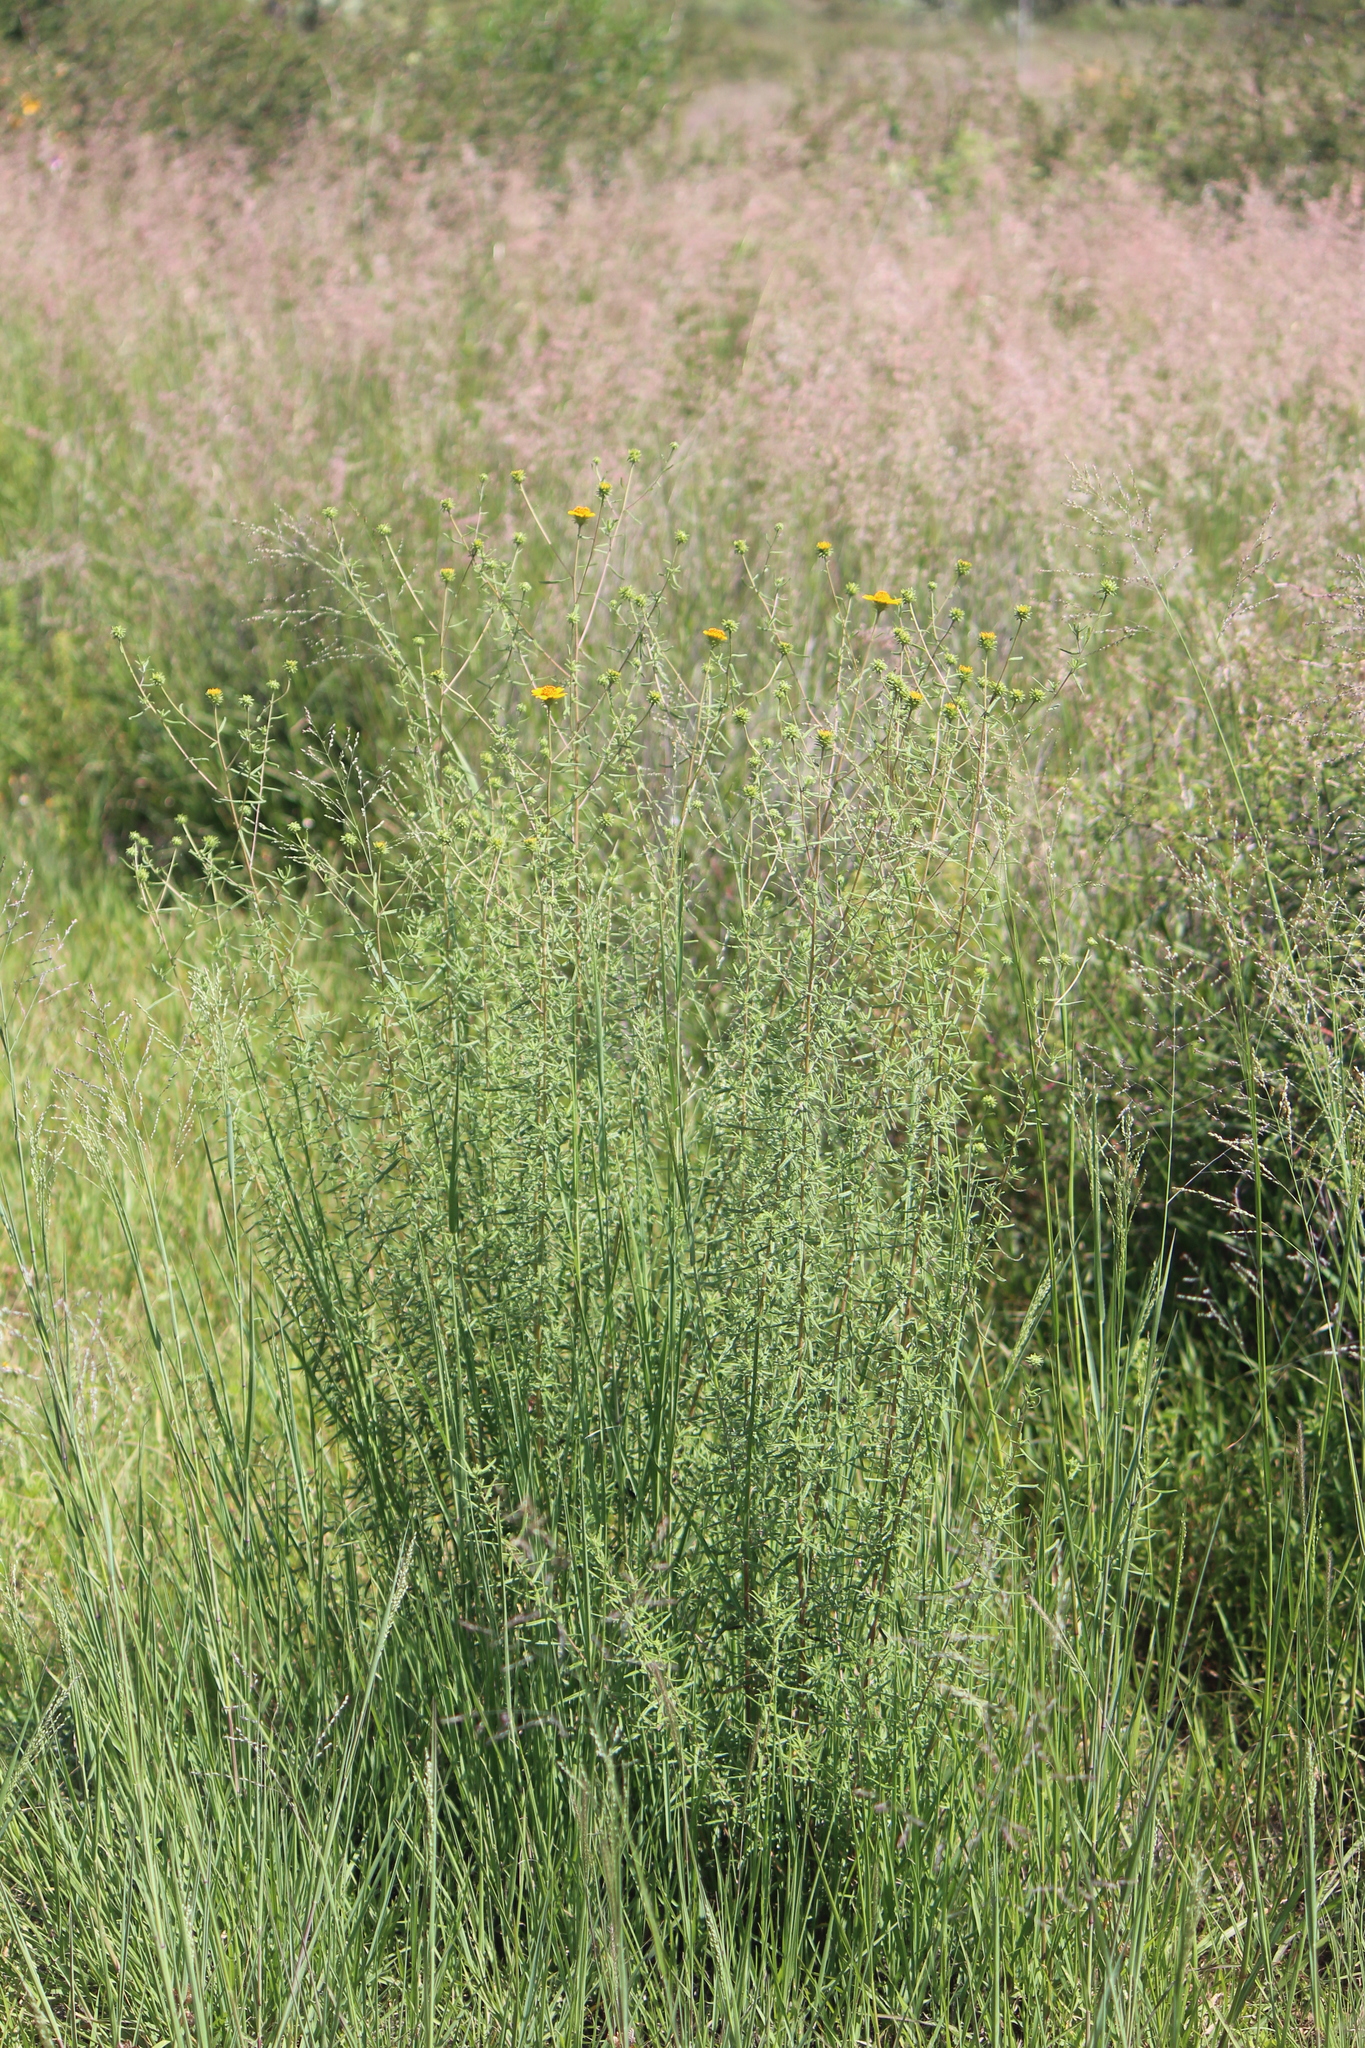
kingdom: Plantae
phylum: Tracheophyta
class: Magnoliopsida
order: Asterales
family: Asteraceae
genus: Aldama
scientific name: Aldama linearis
